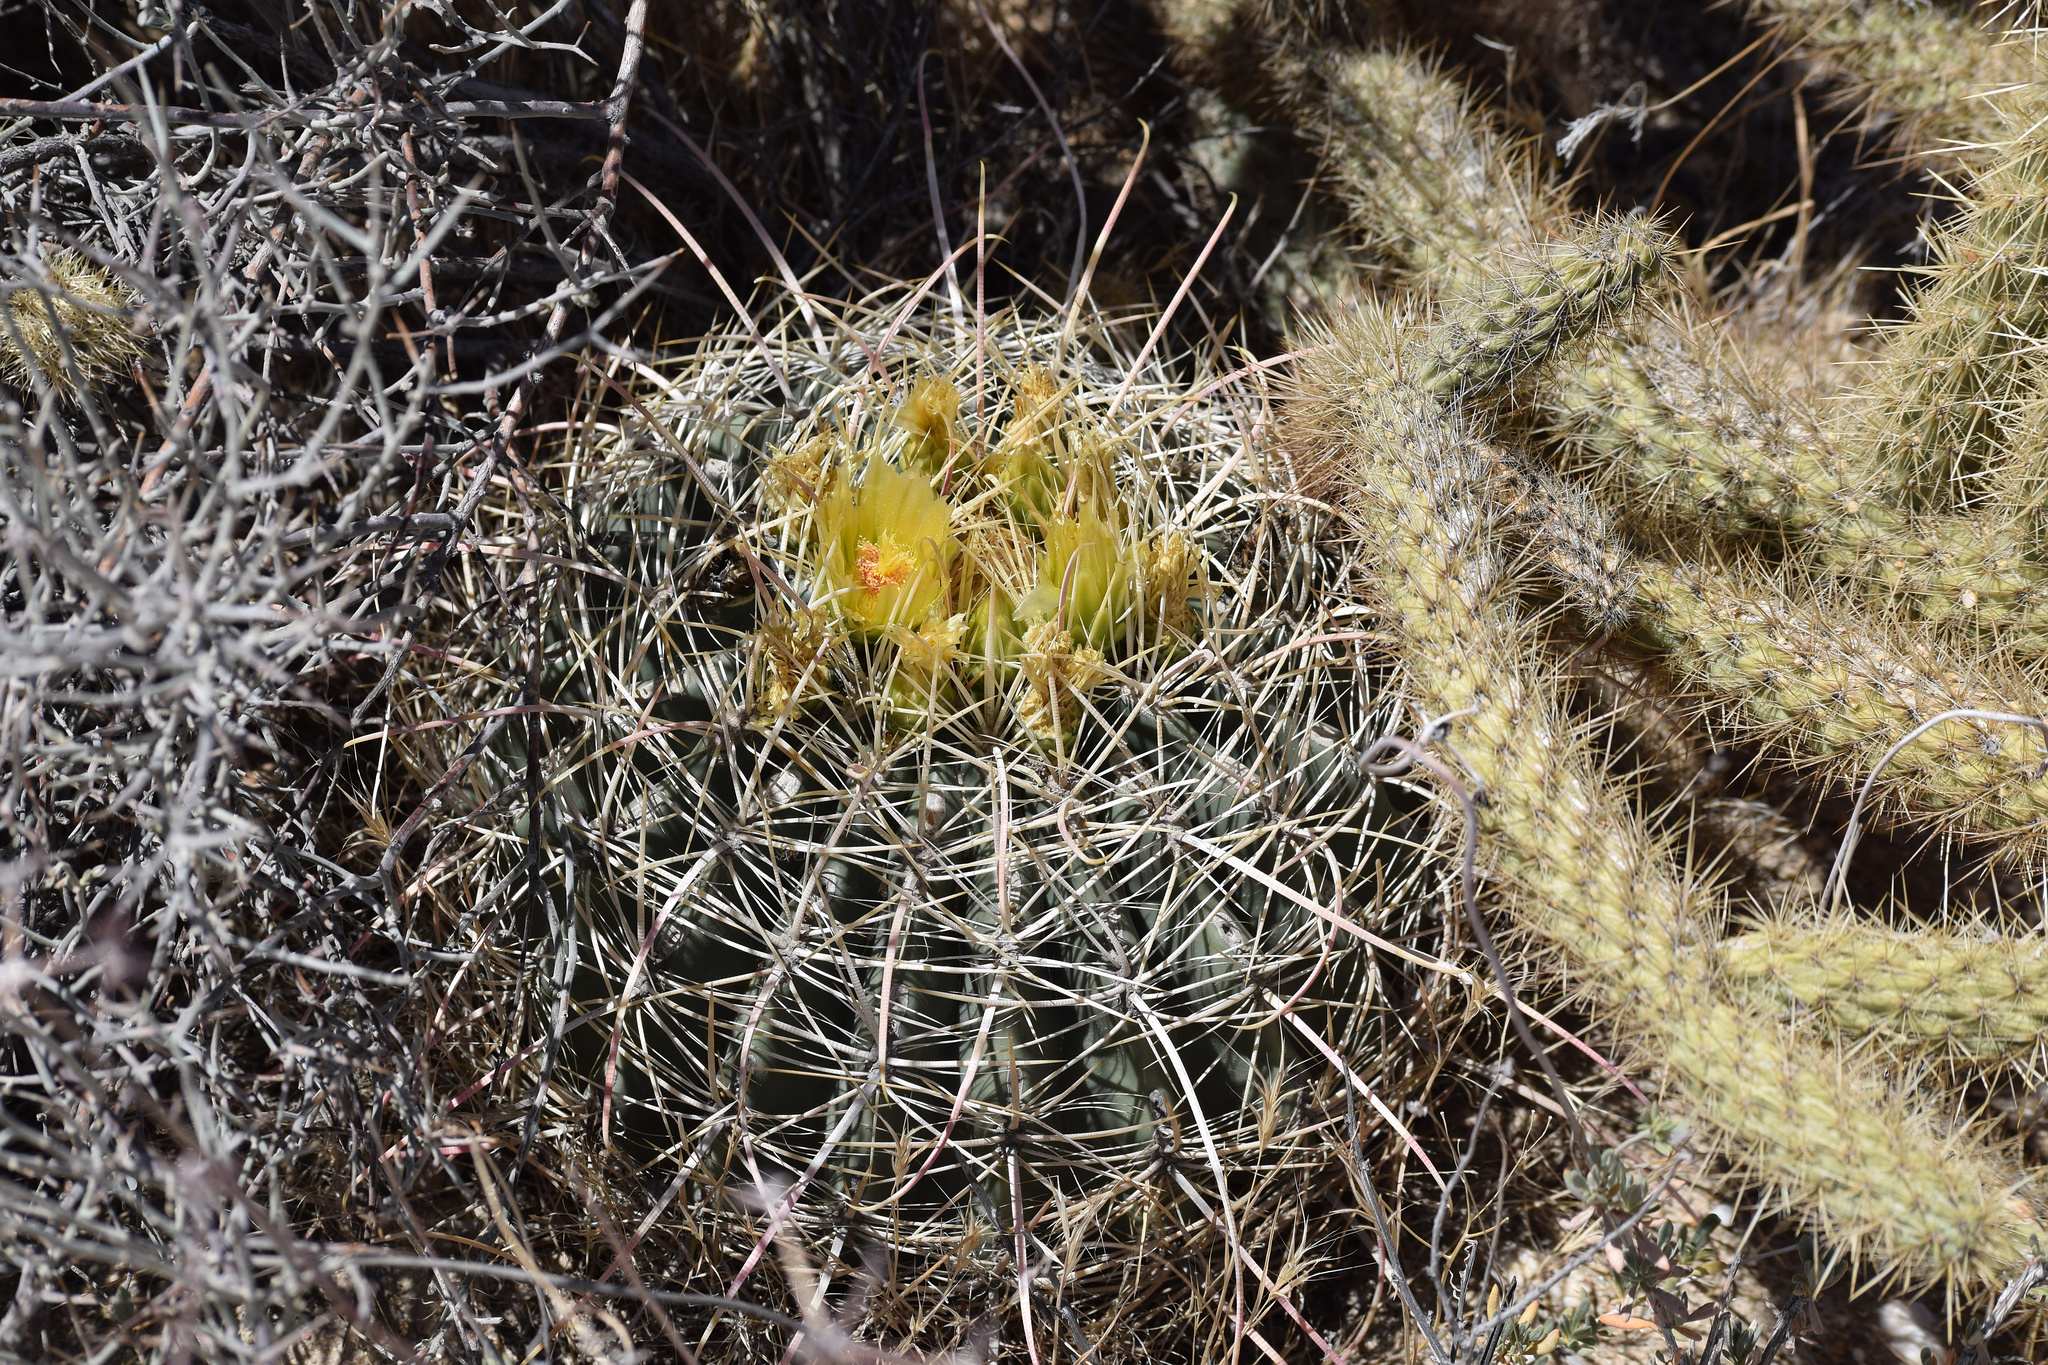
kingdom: Plantae
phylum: Tracheophyta
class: Magnoliopsida
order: Caryophyllales
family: Cactaceae
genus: Ferocactus
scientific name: Ferocactus cylindraceus
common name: California barrel cactus
